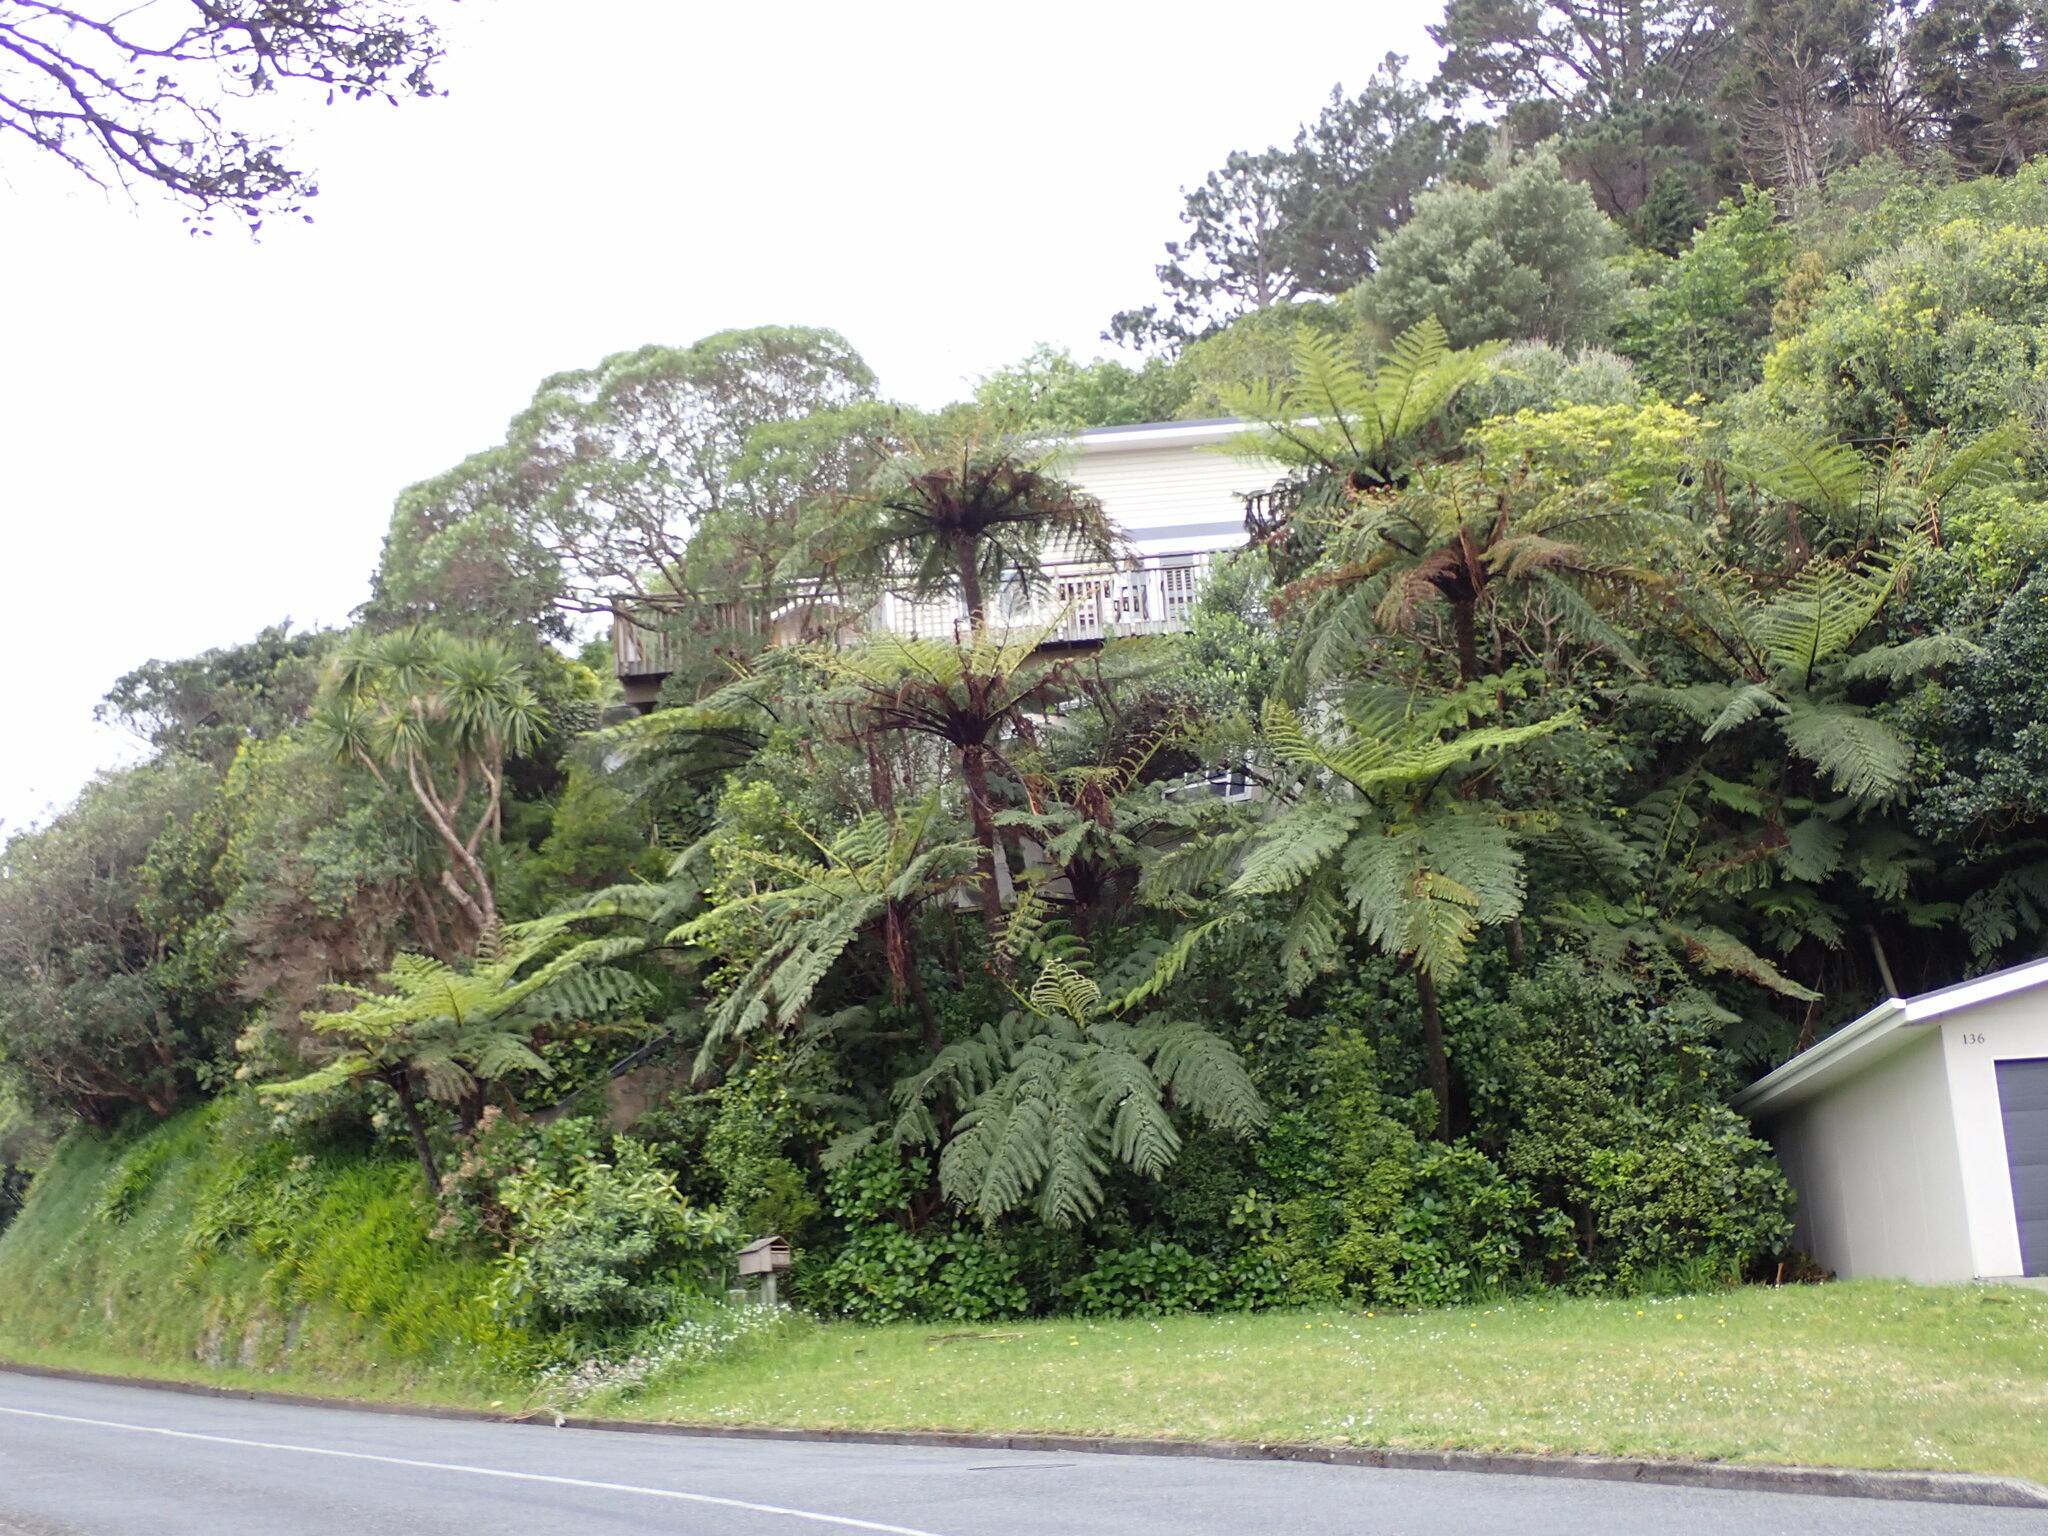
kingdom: Plantae
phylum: Tracheophyta
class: Polypodiopsida
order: Cyatheales
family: Cyatheaceae
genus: Sphaeropteris
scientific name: Sphaeropteris medullaris
